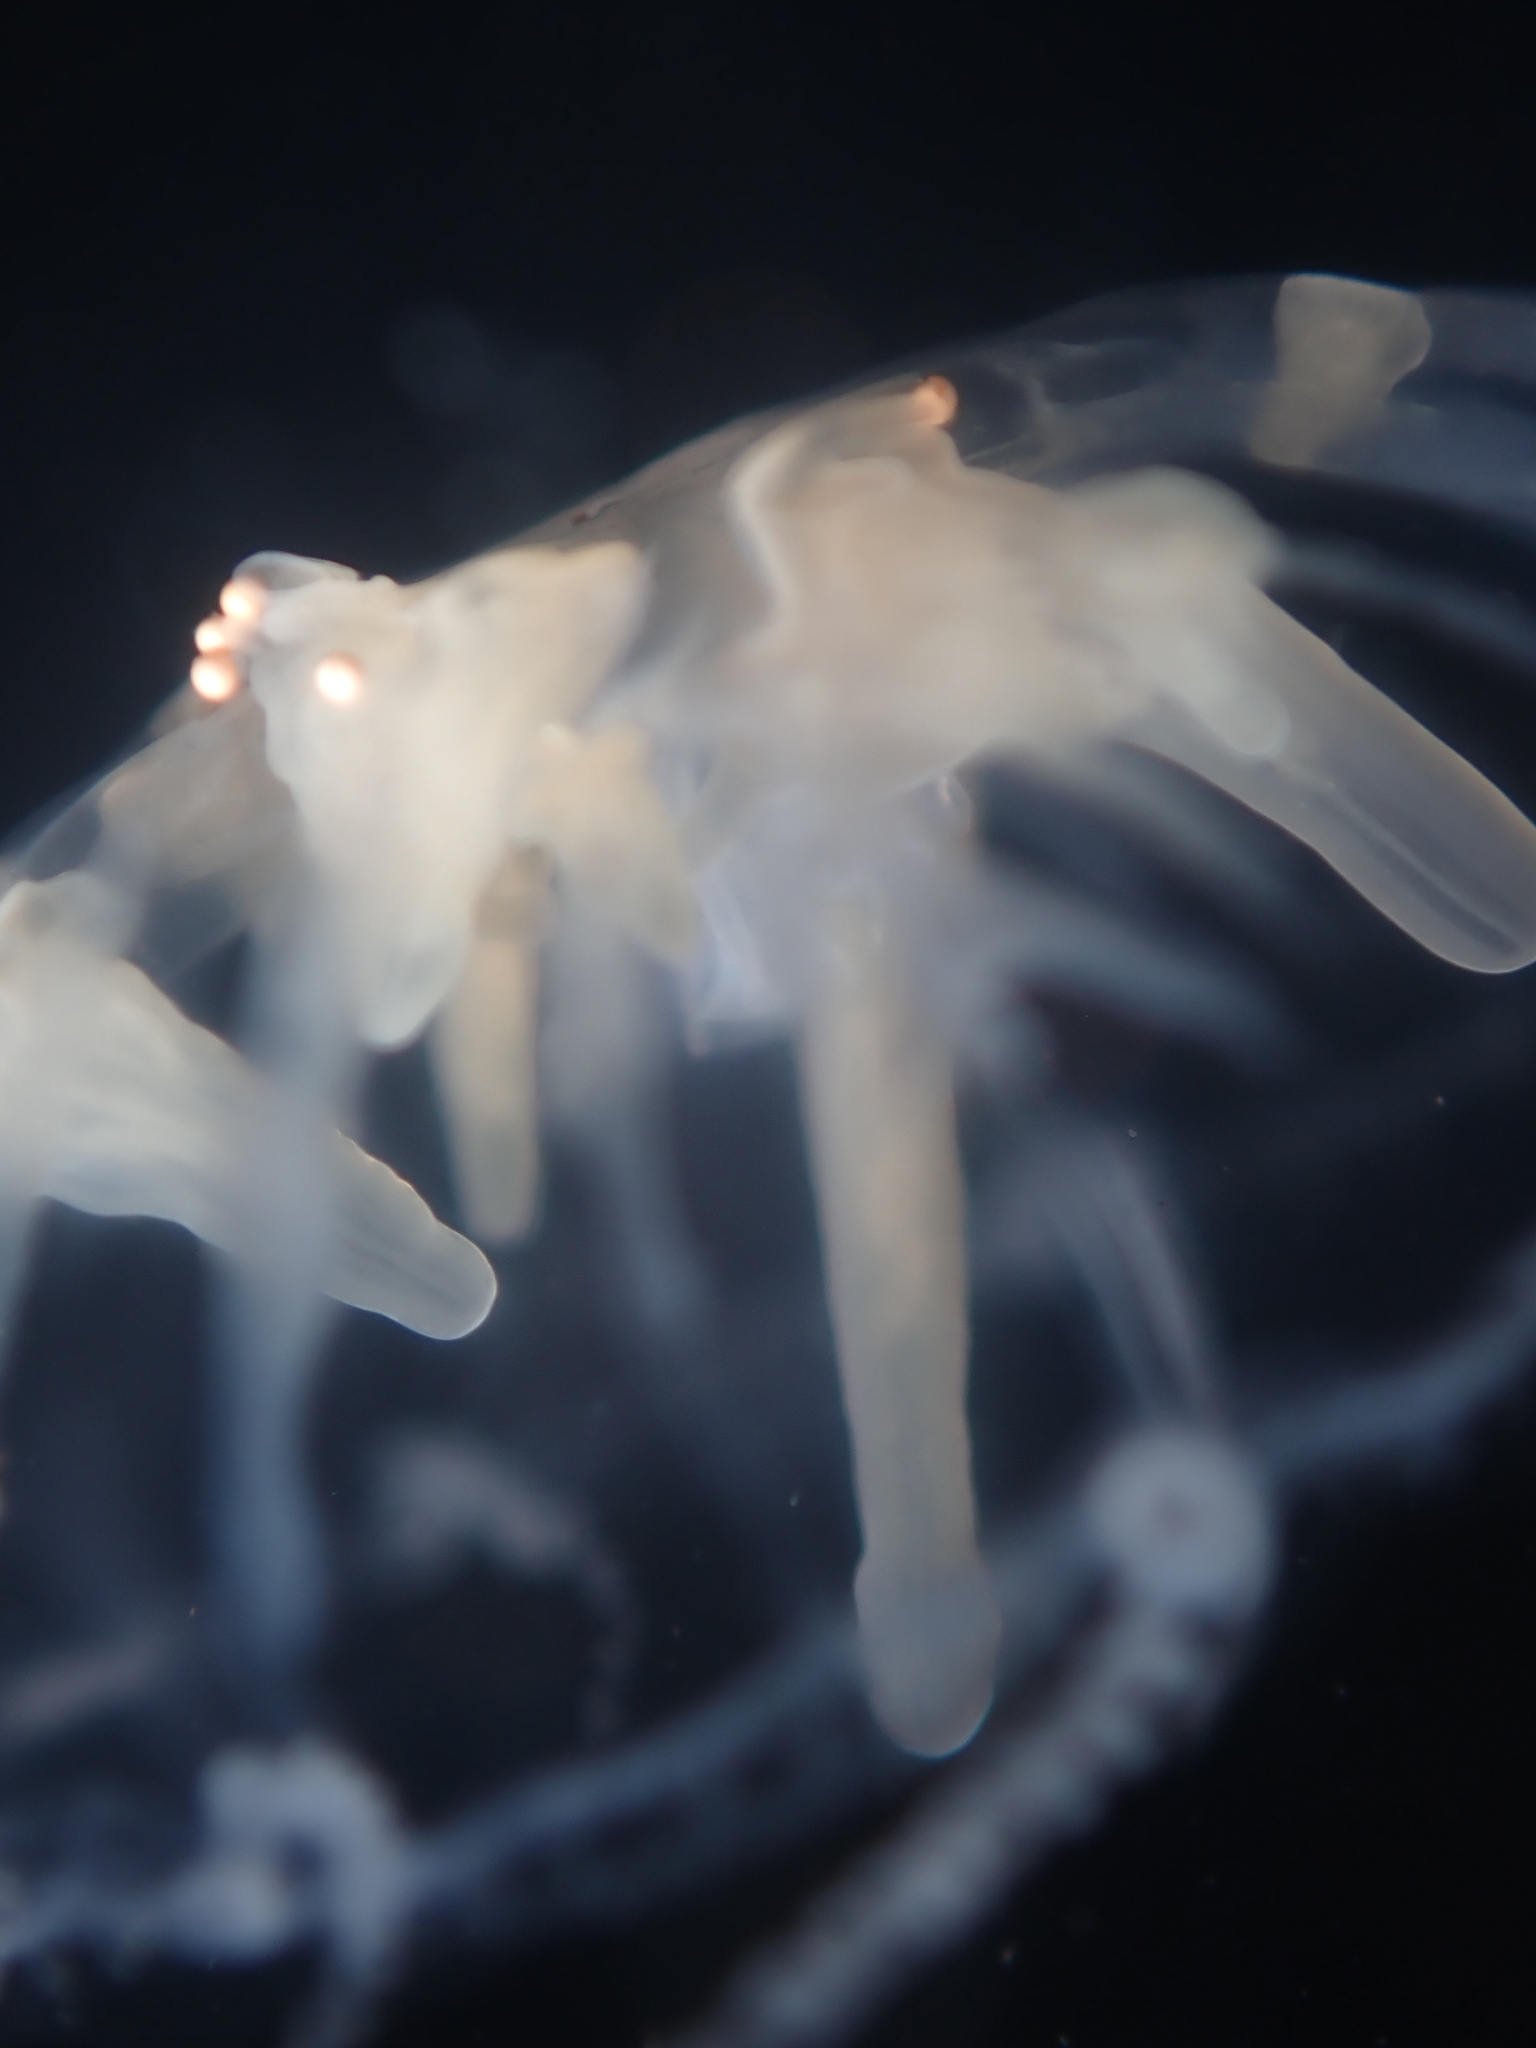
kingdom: Animalia
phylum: Cnidaria
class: Anthozoa
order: Actiniaria
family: Peachiidae
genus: Peachia
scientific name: Peachia neozealandica
